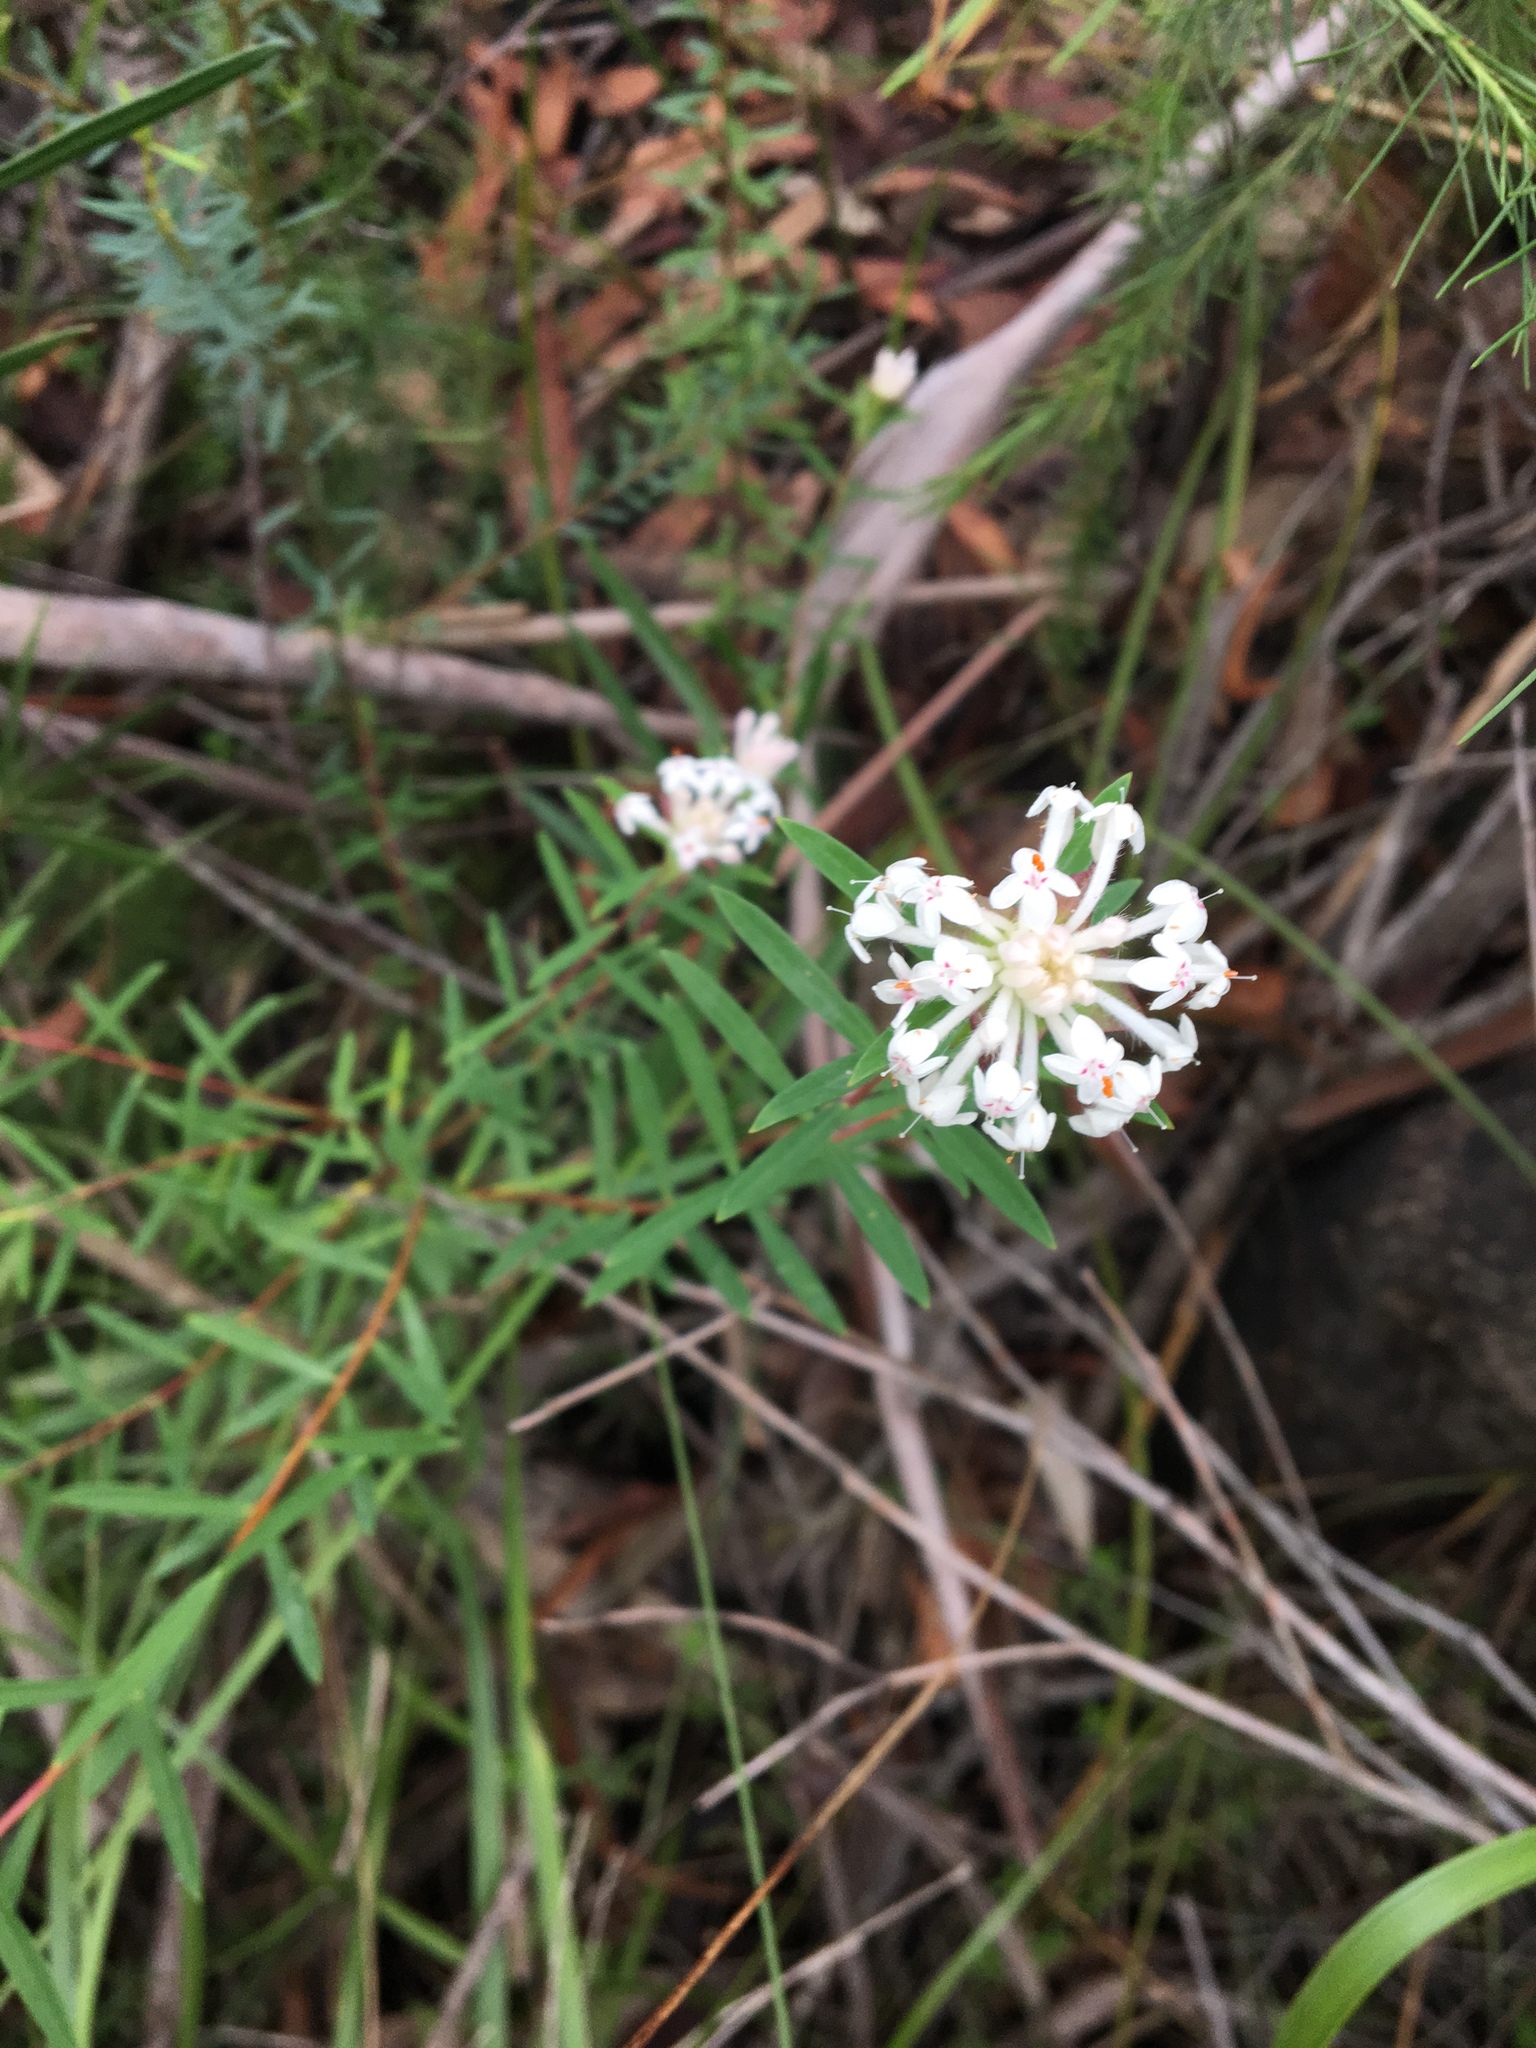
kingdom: Plantae
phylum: Tracheophyta
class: Magnoliopsida
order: Malvales
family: Thymelaeaceae
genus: Pimelea
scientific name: Pimelea linifolia
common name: Queen-of-the-bush
